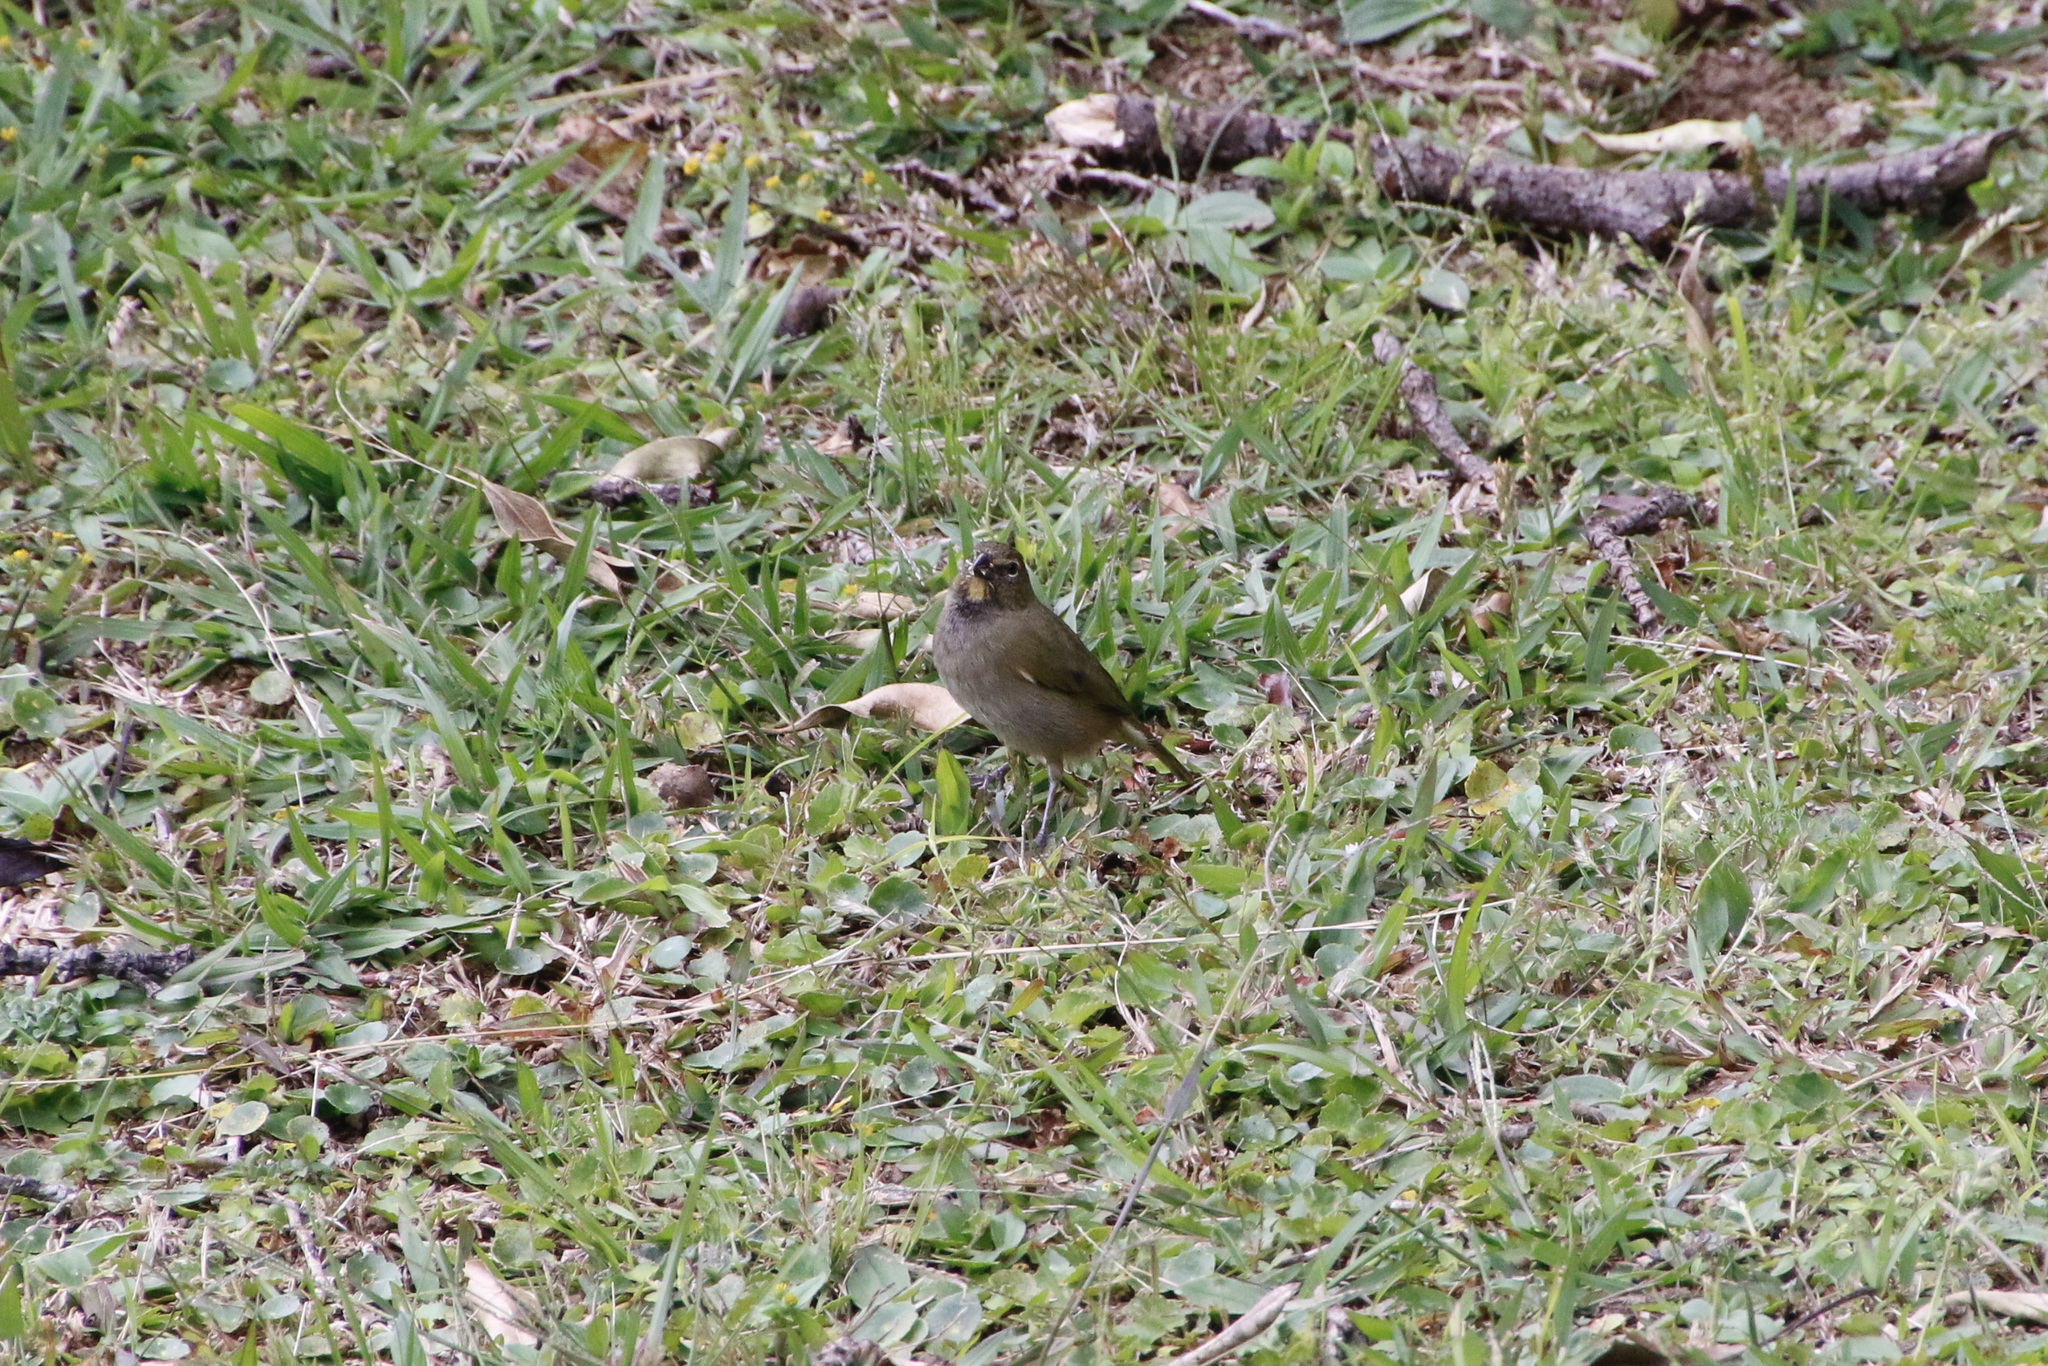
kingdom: Animalia
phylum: Chordata
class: Aves
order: Passeriformes
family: Thraupidae
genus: Tiaris
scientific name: Tiaris olivaceus
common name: Yellow-faced grassquit
